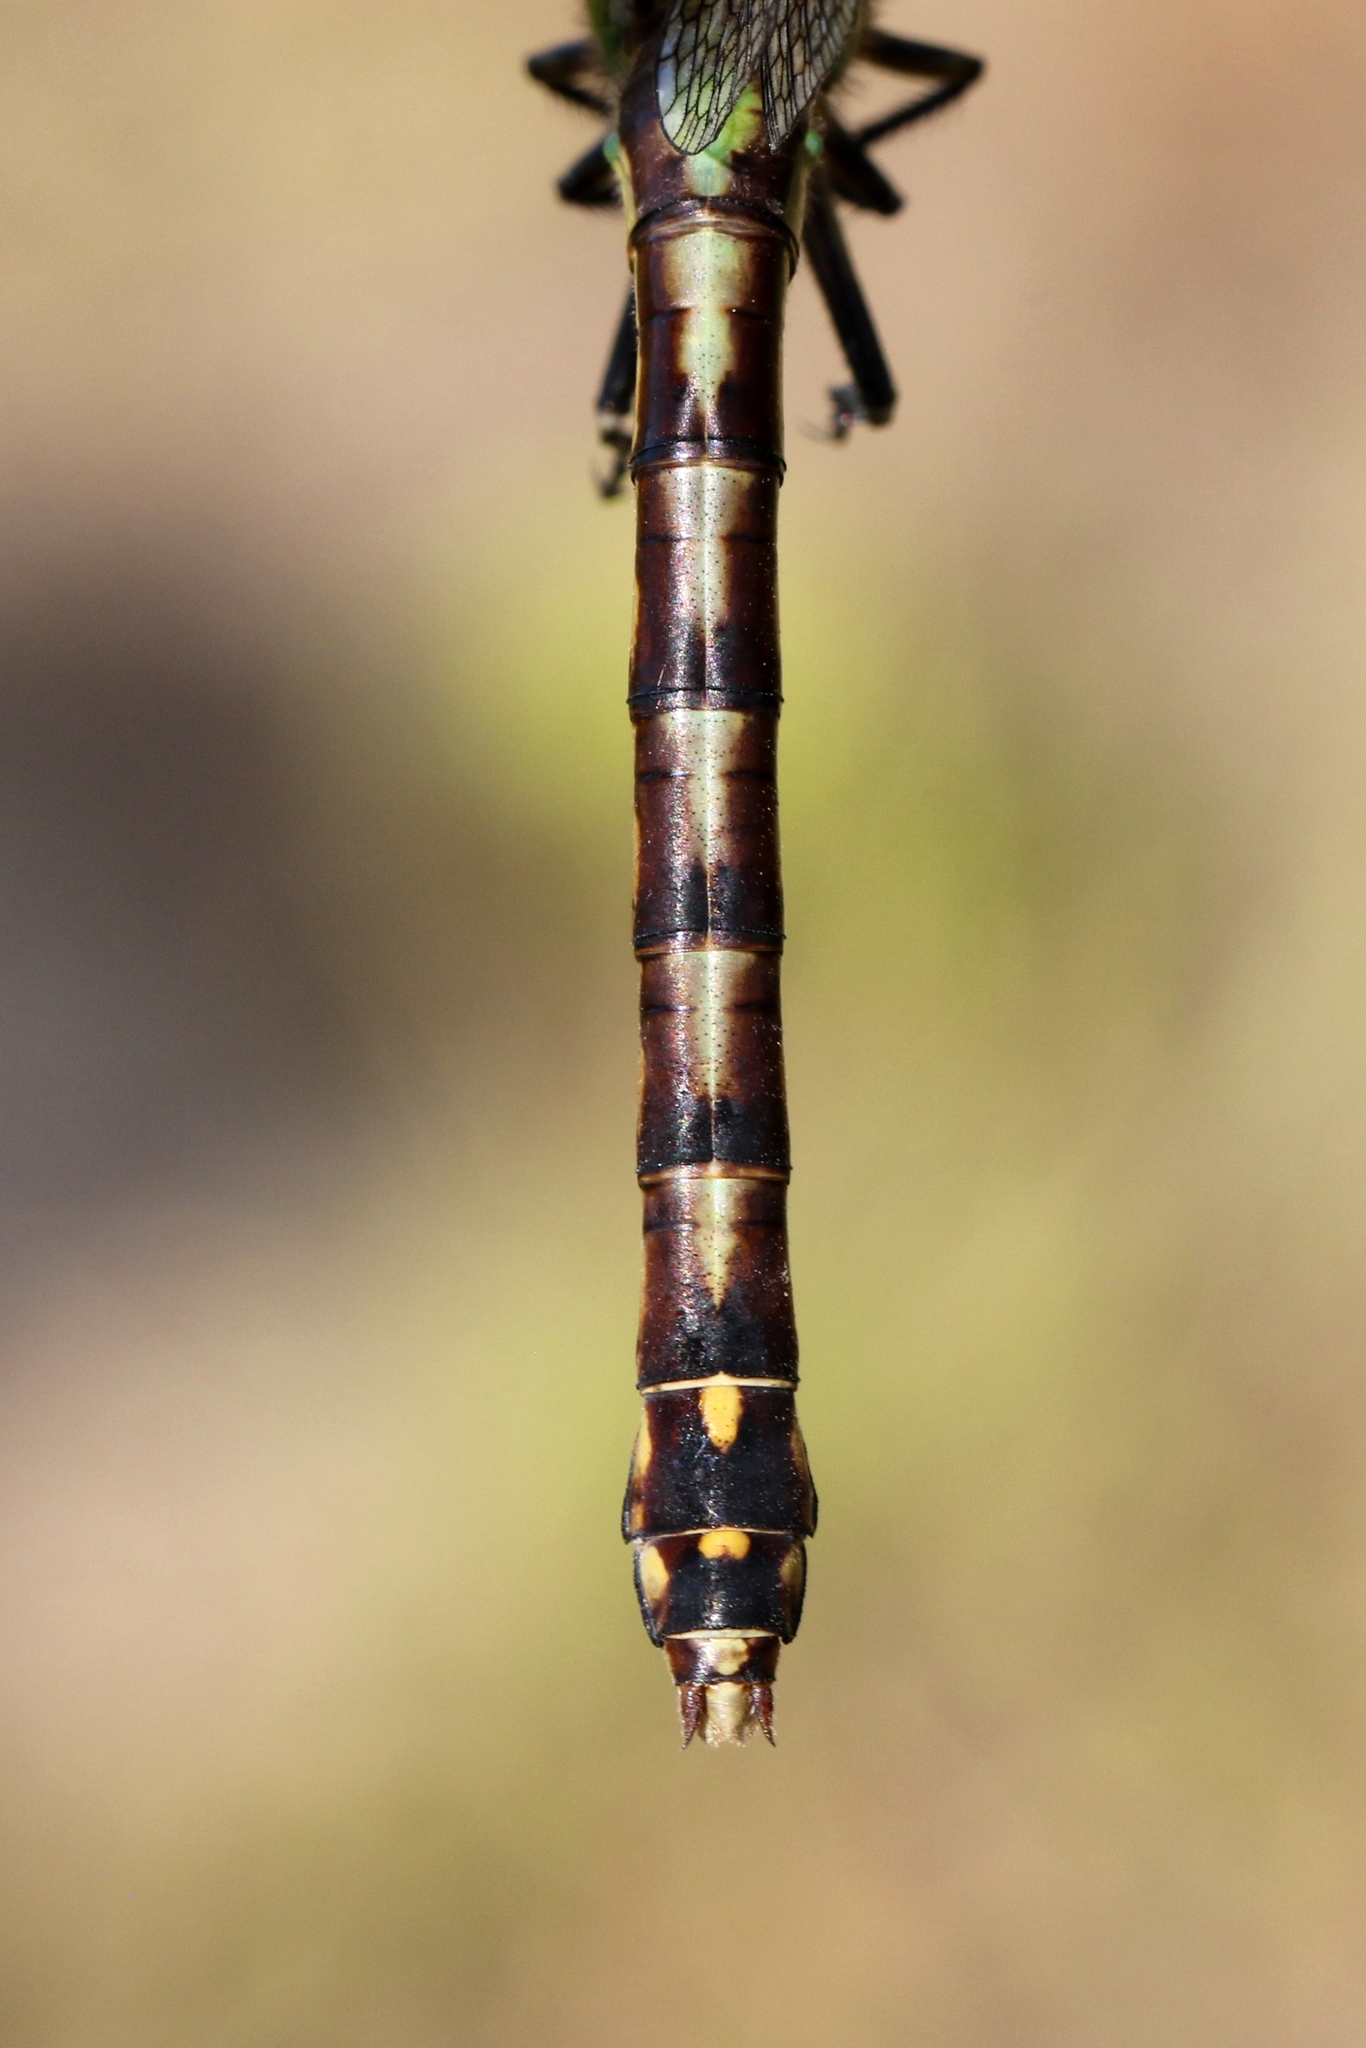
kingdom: Animalia
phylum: Arthropoda
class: Insecta
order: Odonata
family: Gomphidae
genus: Ophiogomphus
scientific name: Ophiogomphus aspersus
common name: Brook snaketail
